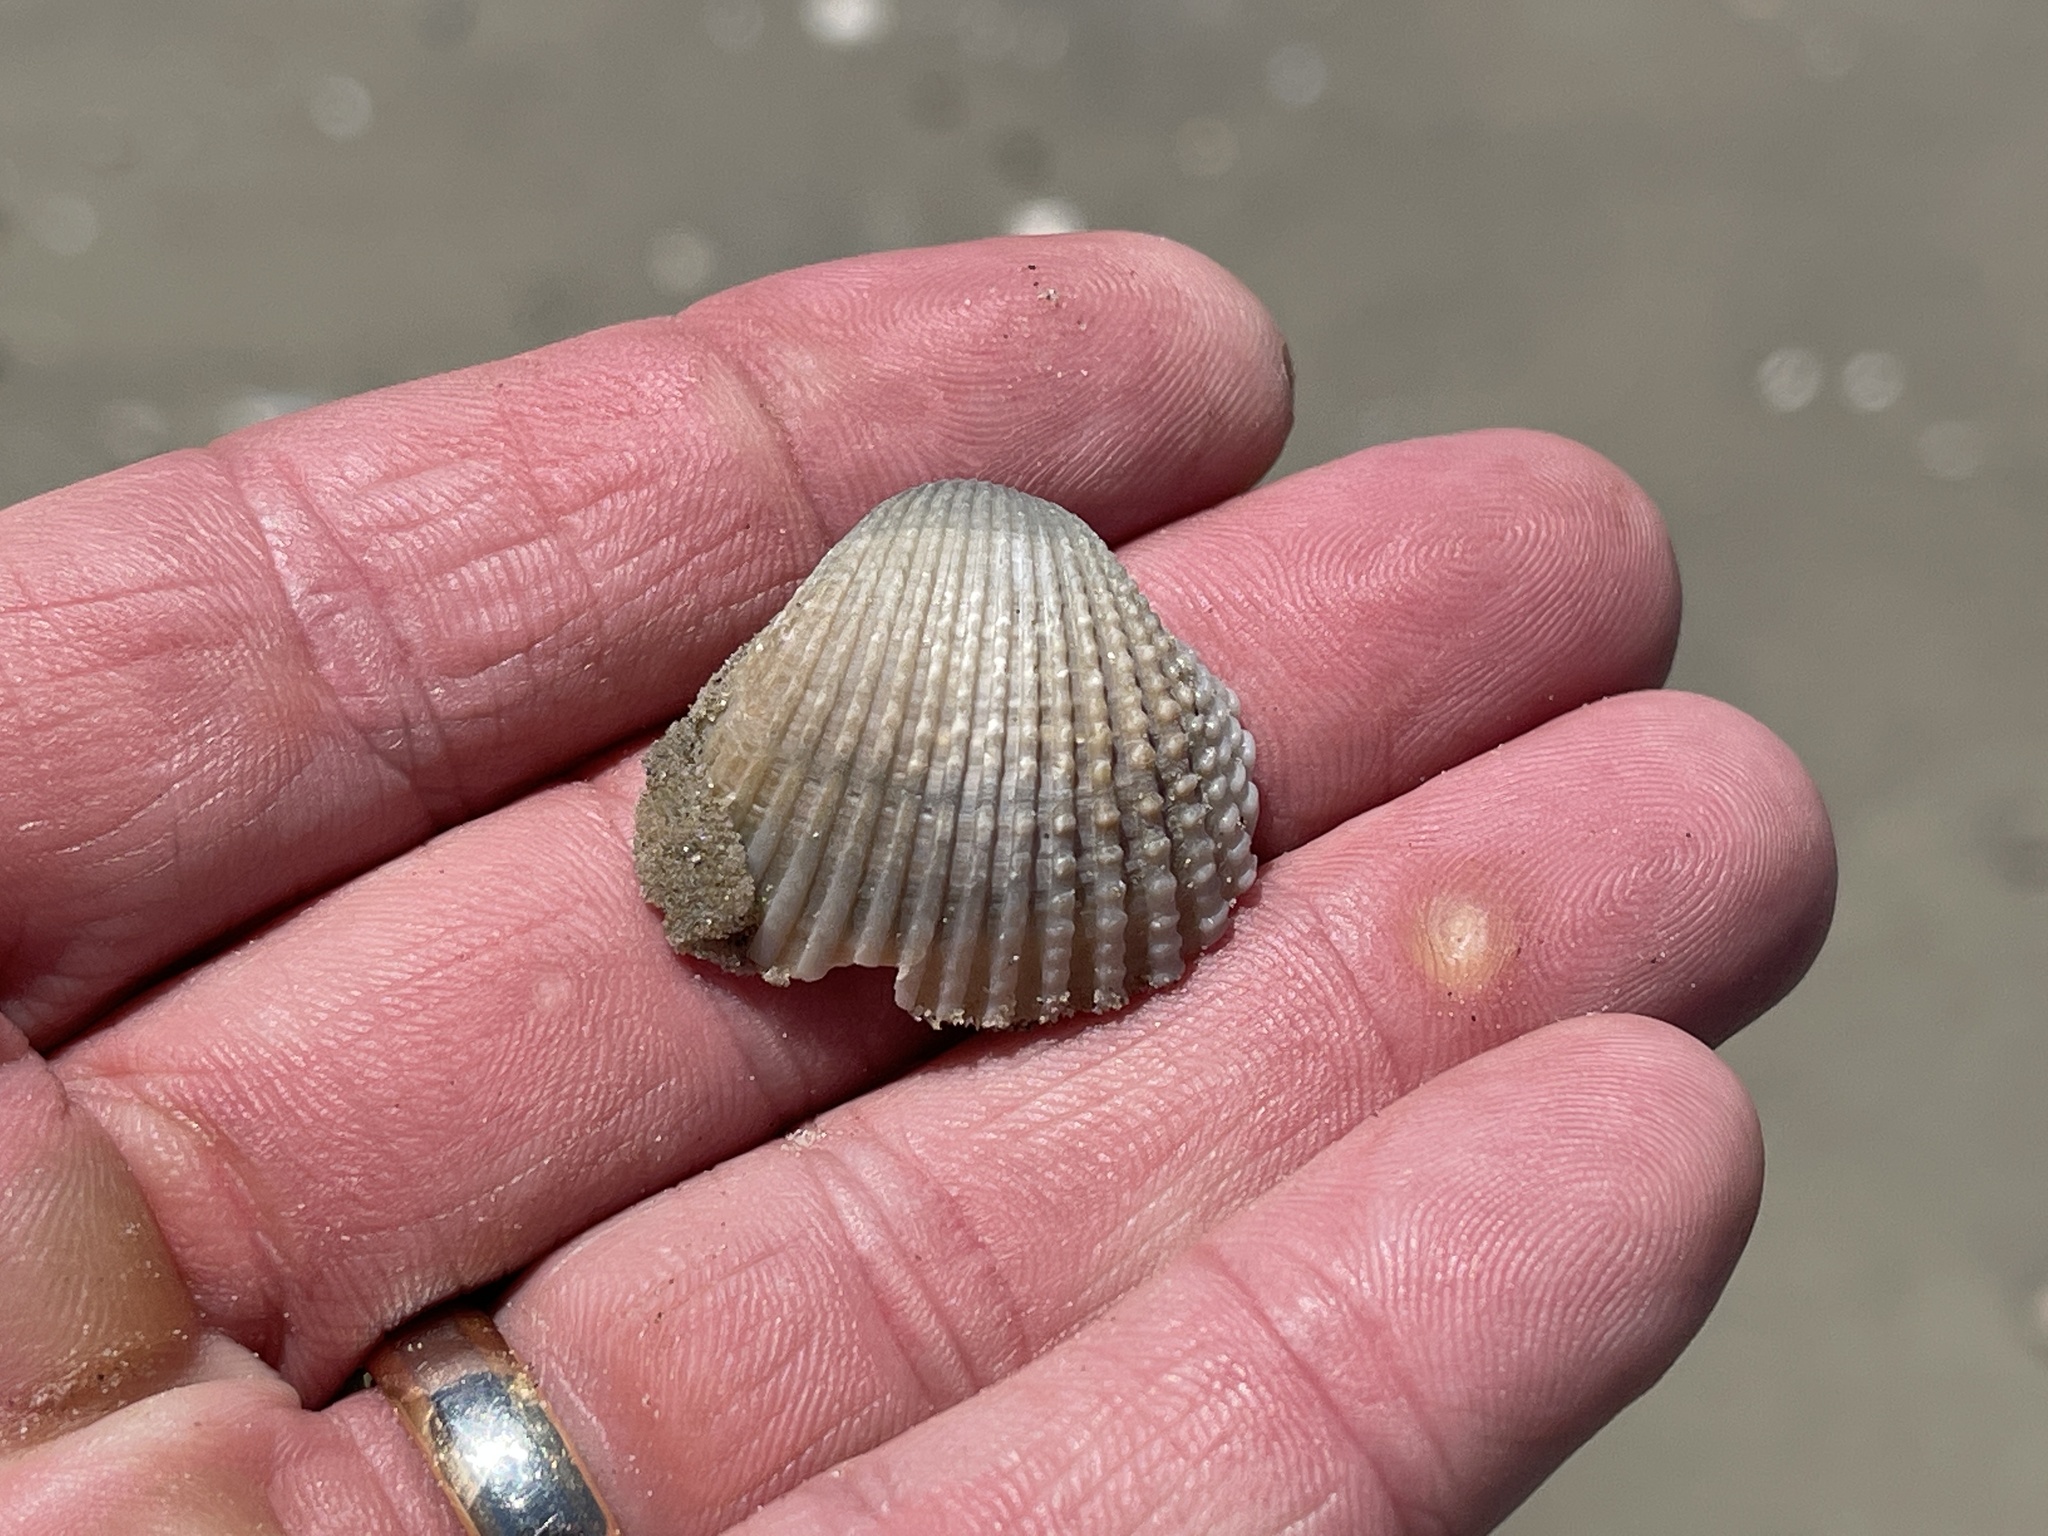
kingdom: Animalia
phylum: Mollusca
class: Bivalvia
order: Arcida
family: Arcidae
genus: Anadara
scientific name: Anadara chemnitzii
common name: Chemnitz's triangular ark
